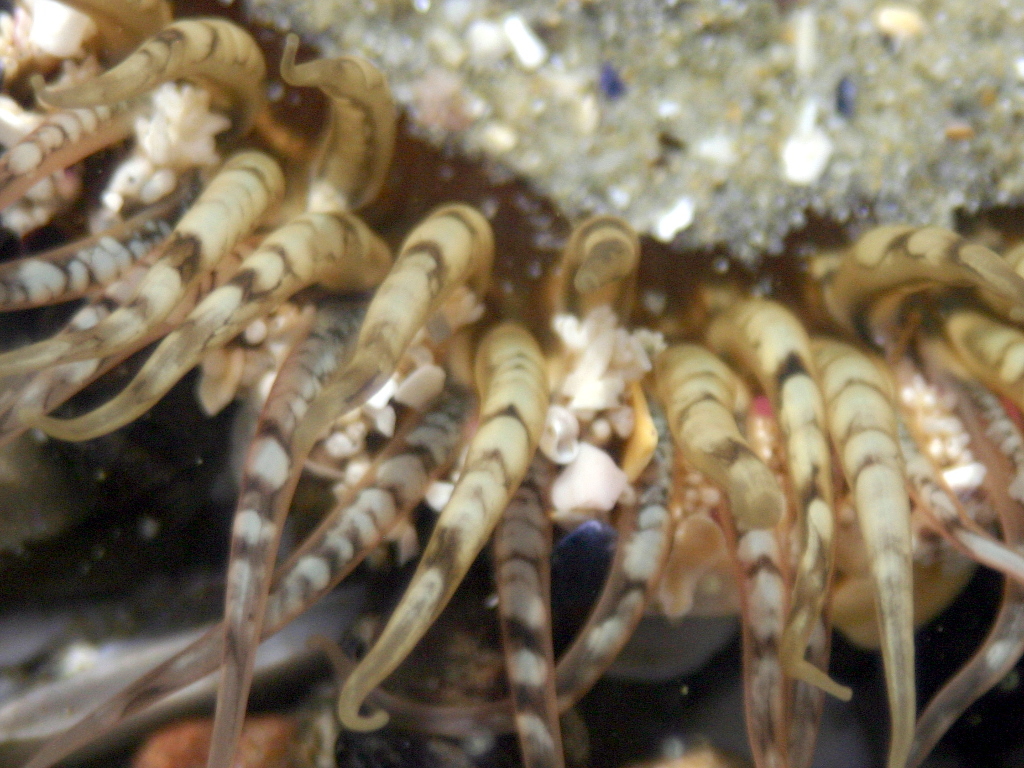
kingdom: Animalia
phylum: Cnidaria
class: Anthozoa
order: Actiniaria
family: Actiniidae
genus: Oulactis
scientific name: Oulactis muscosa
